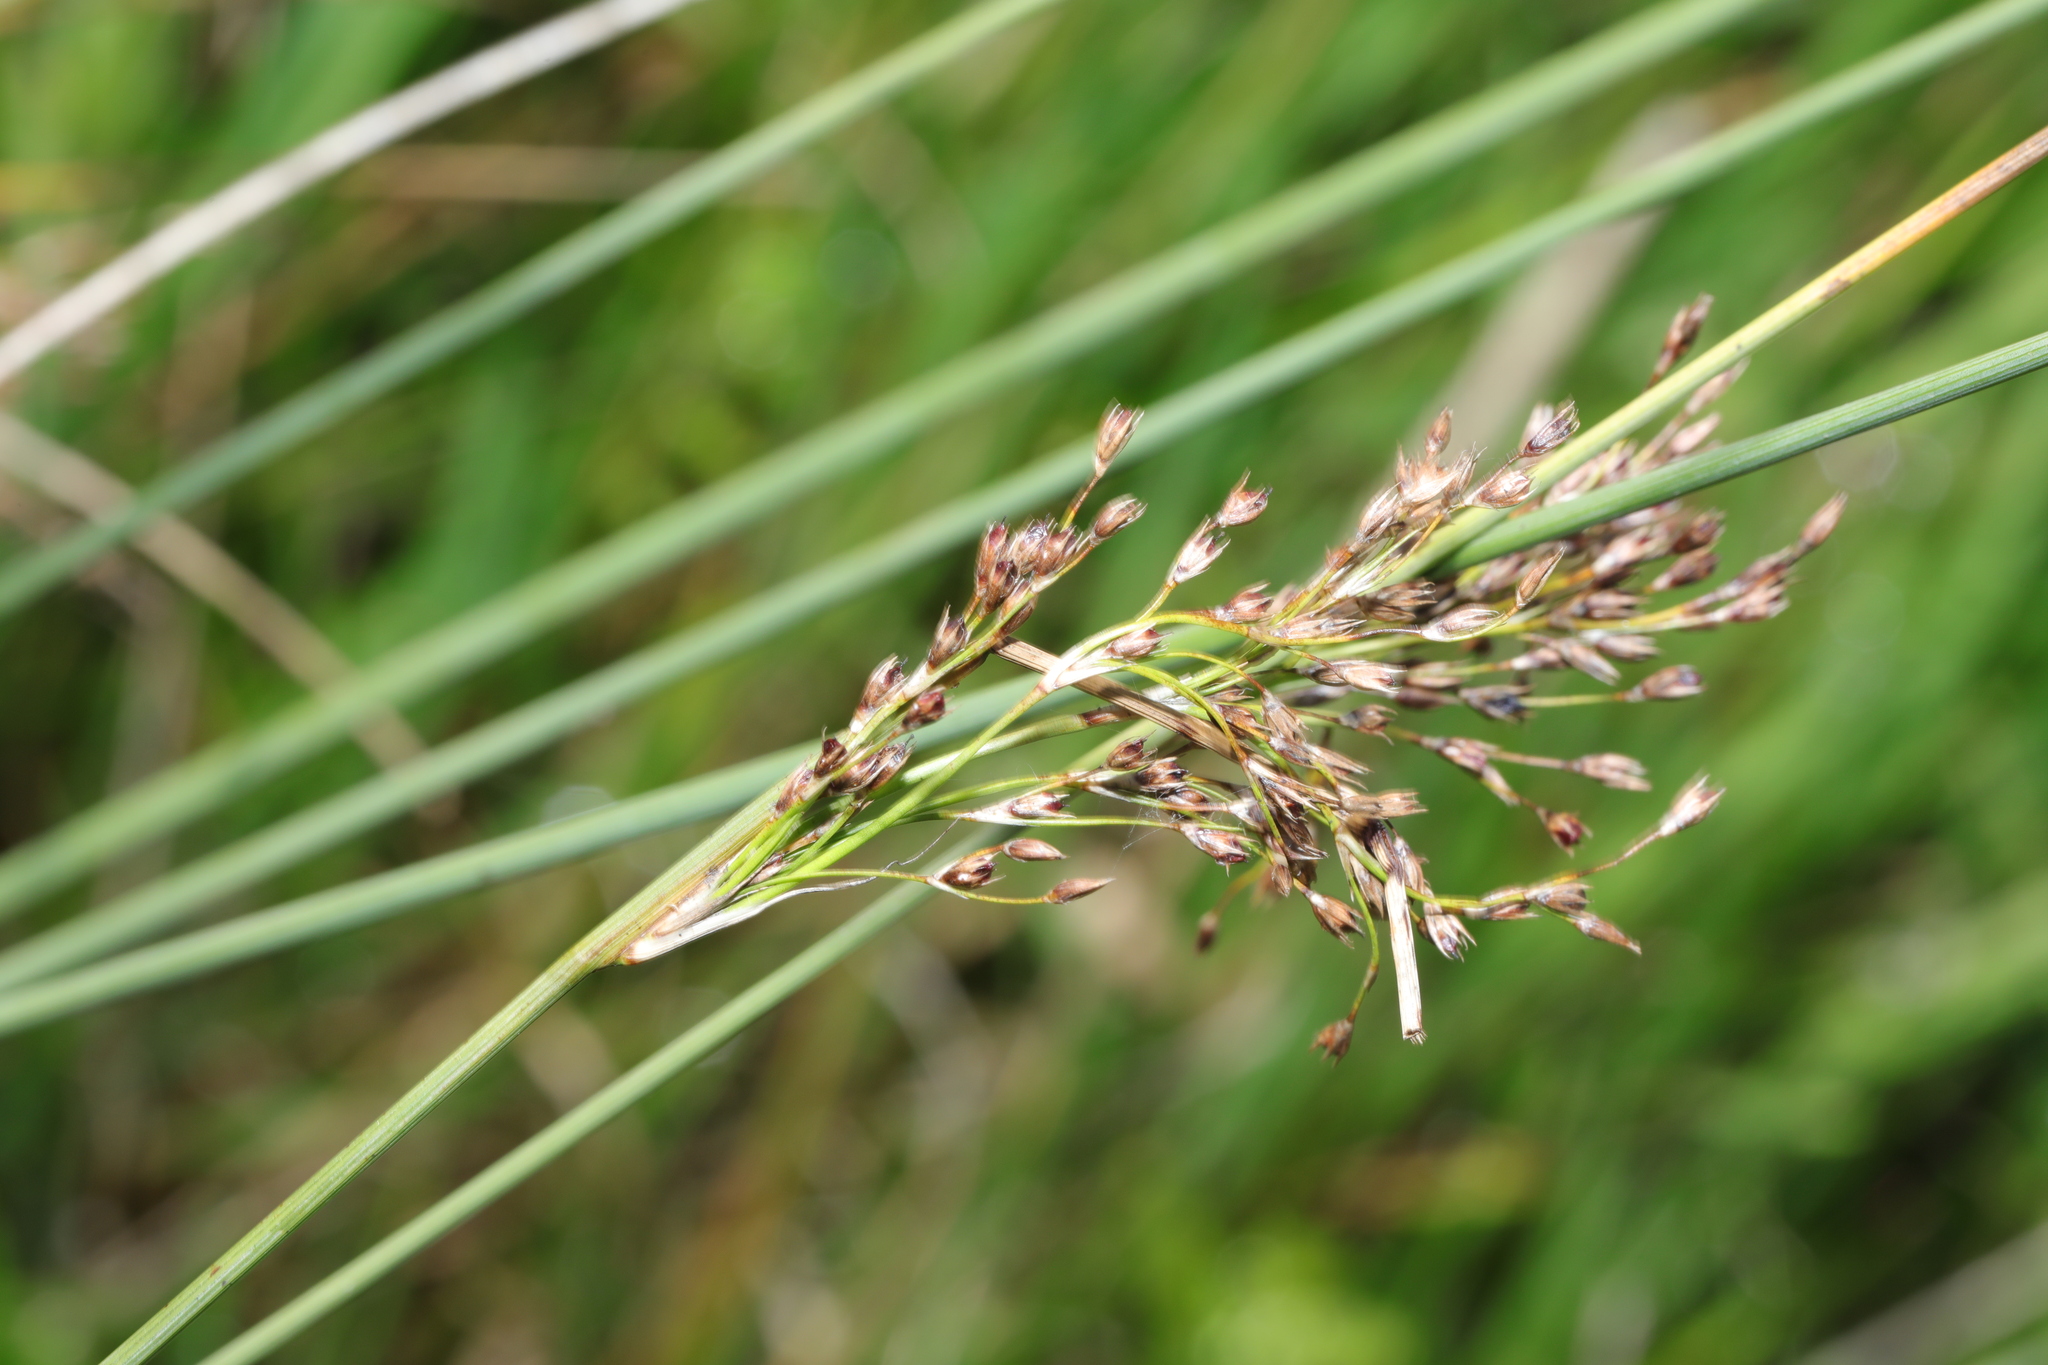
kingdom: Plantae
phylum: Tracheophyta
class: Liliopsida
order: Poales
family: Juncaceae
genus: Juncus
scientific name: Juncus inflexus
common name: Hard rush
